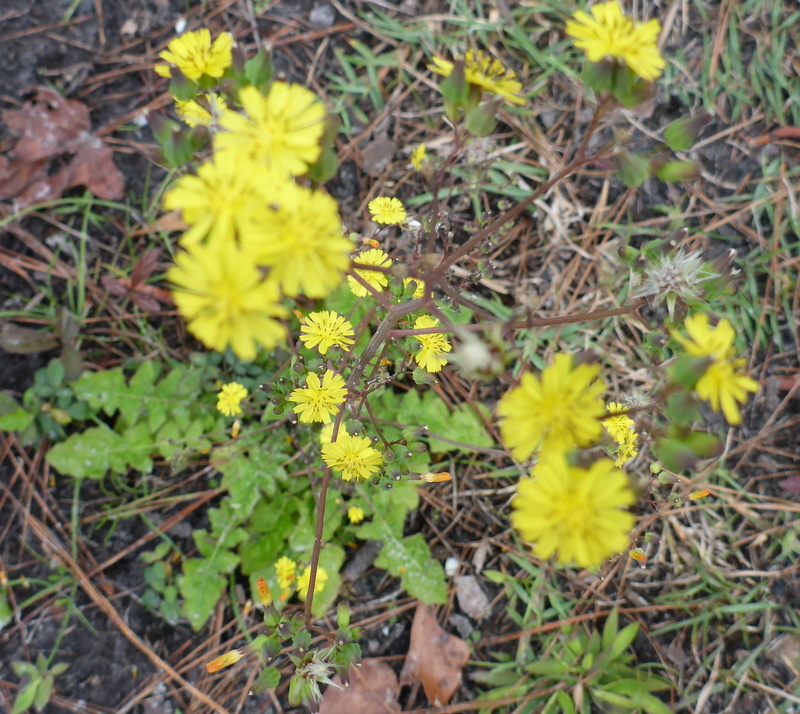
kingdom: Plantae
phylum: Tracheophyta
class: Magnoliopsida
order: Asterales
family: Asteraceae
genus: Youngia
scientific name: Youngia japonica
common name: Oriental false hawksbeard
